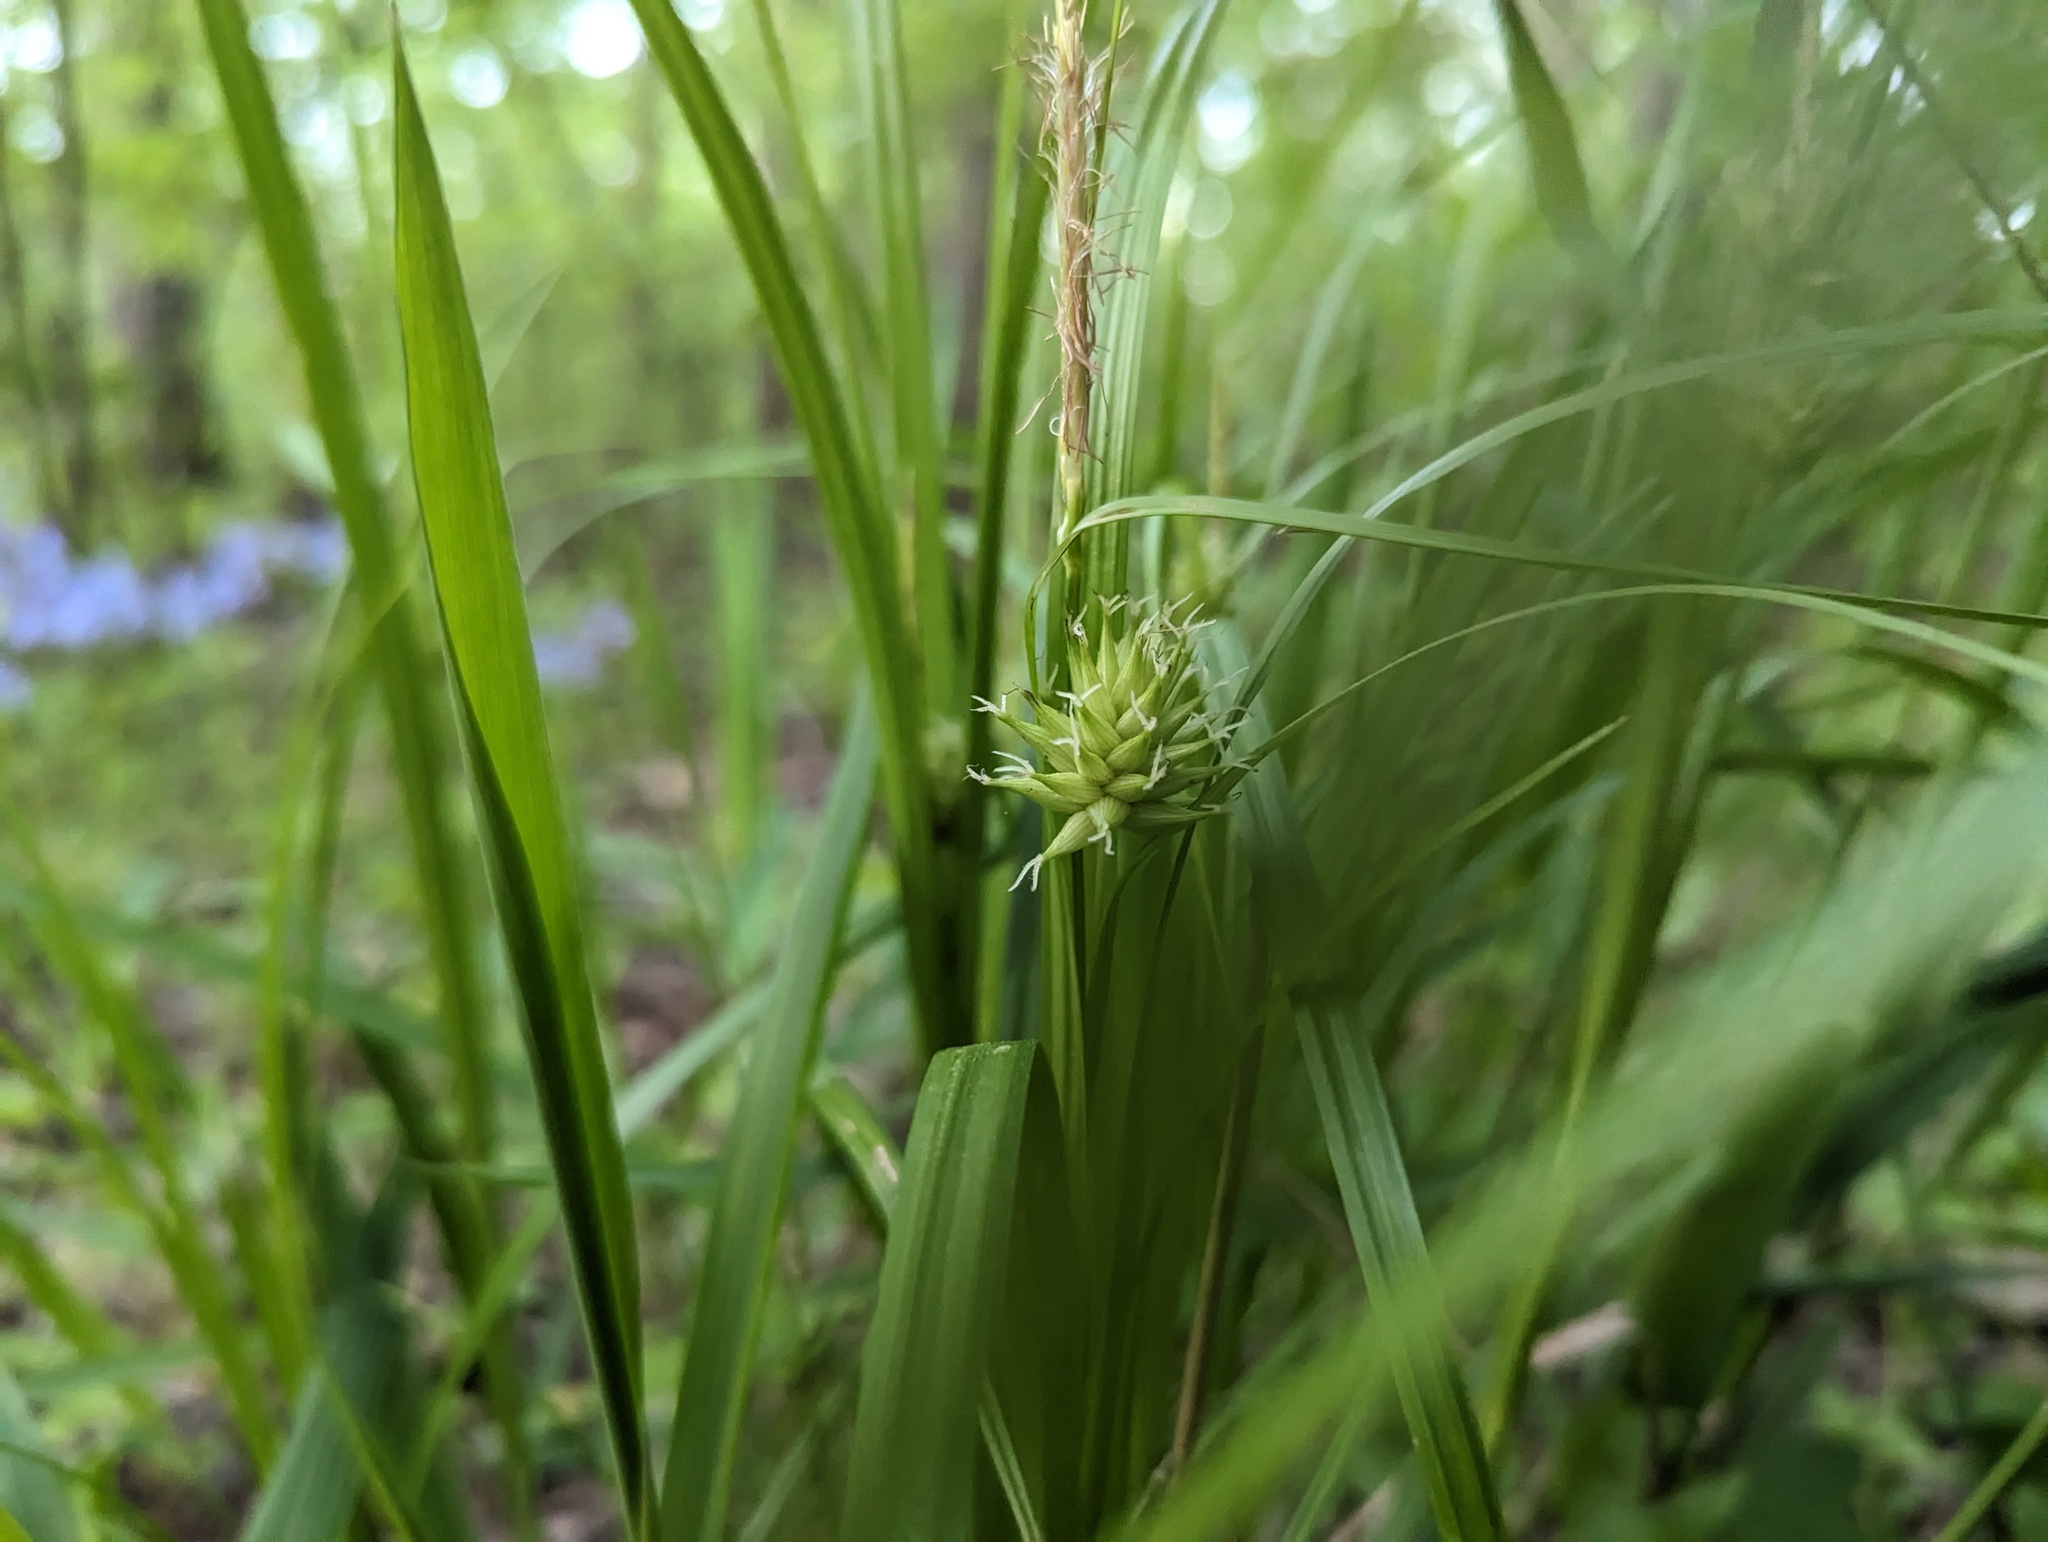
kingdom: Plantae
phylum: Tracheophyta
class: Liliopsida
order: Poales
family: Cyperaceae
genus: Carex
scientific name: Carex grayi
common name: Asa gray's sedge
